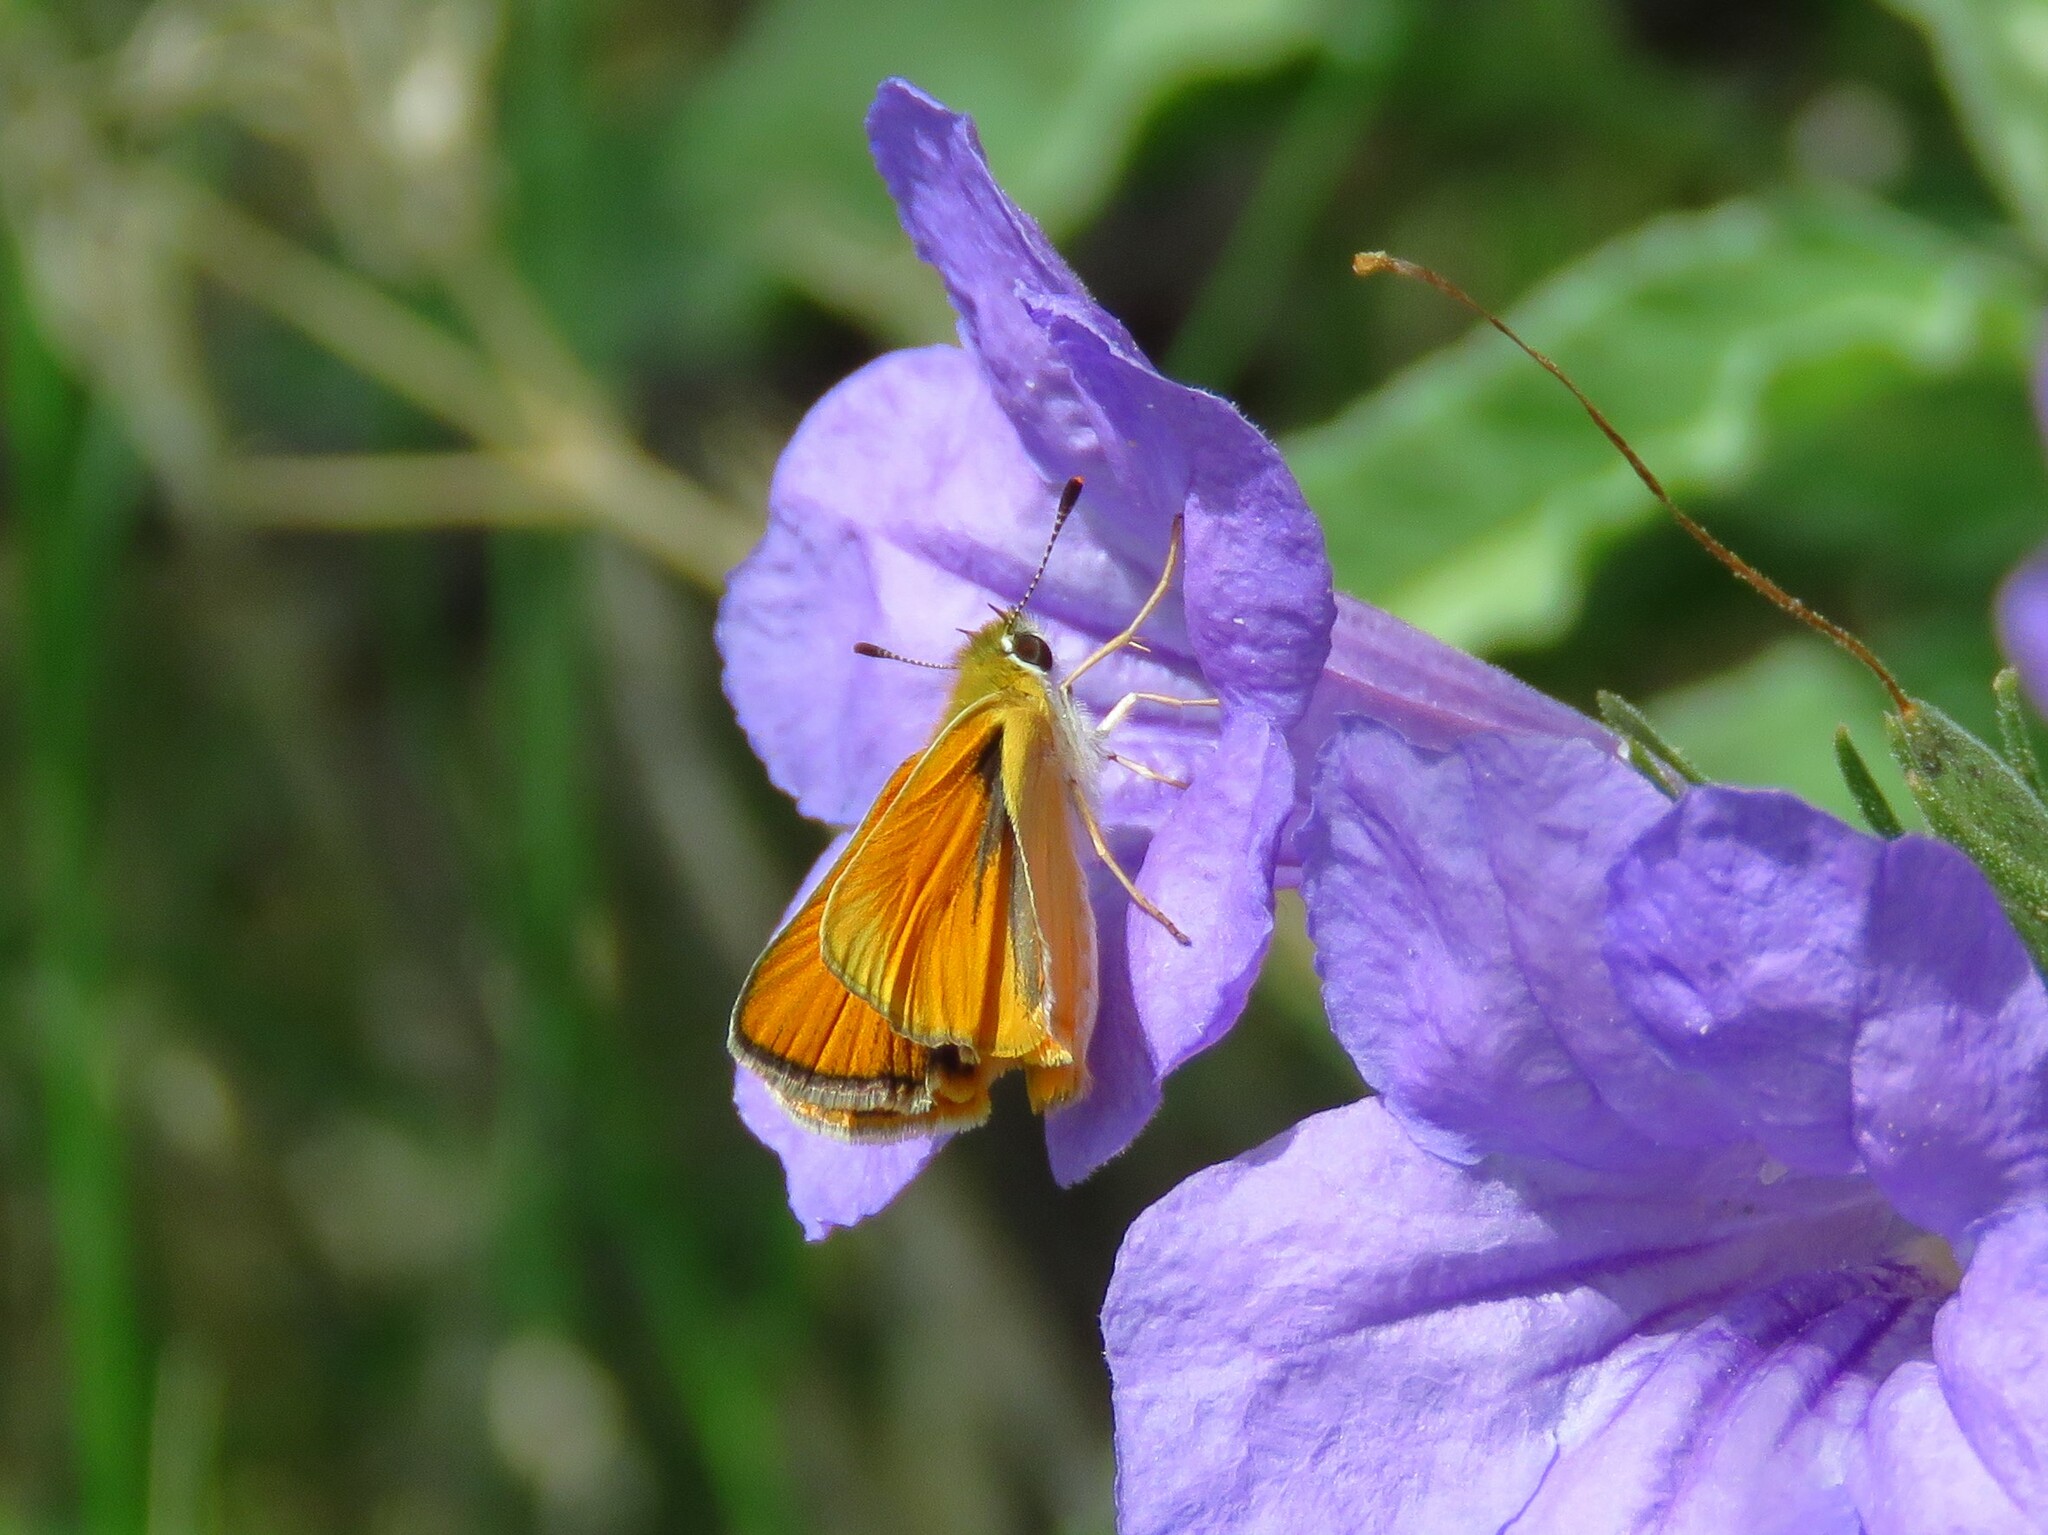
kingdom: Animalia
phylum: Arthropoda
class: Insecta
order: Lepidoptera
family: Hesperiidae
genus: Copaeodes
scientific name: Copaeodes aurantiaca
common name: Orange skipperling
